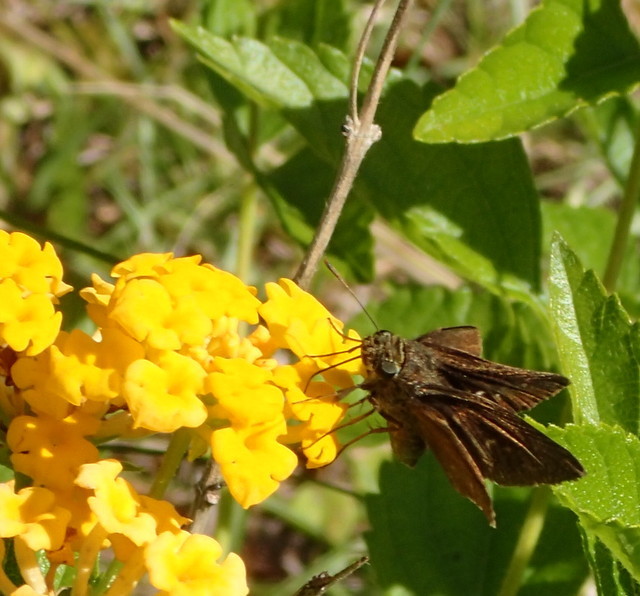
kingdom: Animalia
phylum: Arthropoda
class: Insecta
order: Lepidoptera
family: Hesperiidae
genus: Panoquina
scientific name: Panoquina ocola
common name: Ocola skipper
